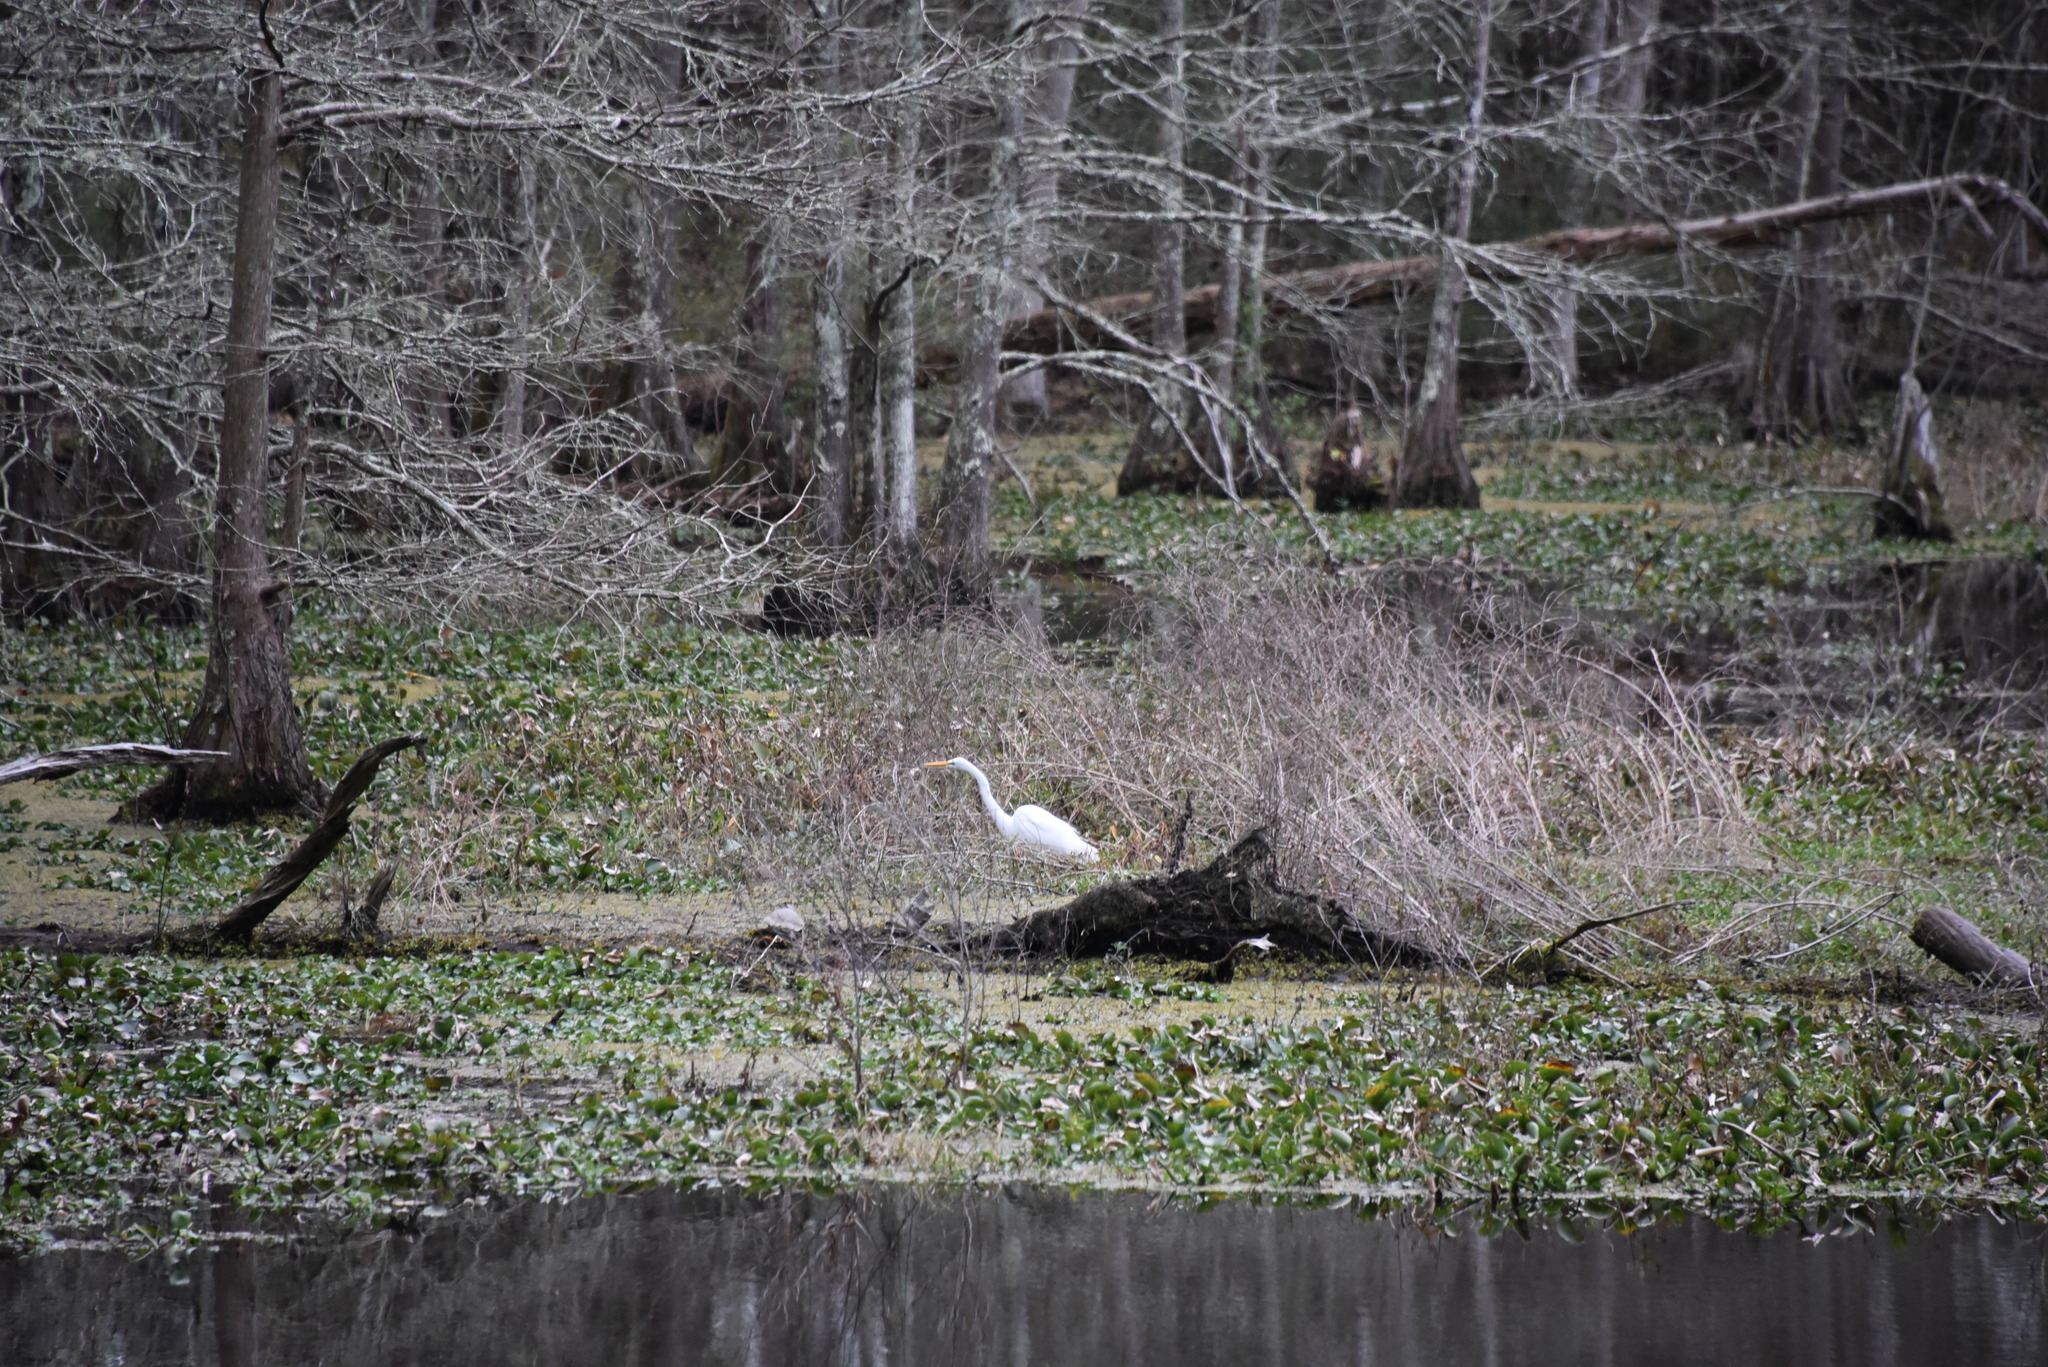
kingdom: Animalia
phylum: Chordata
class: Aves
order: Pelecaniformes
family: Ardeidae
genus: Ardea
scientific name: Ardea alba
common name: Great egret
